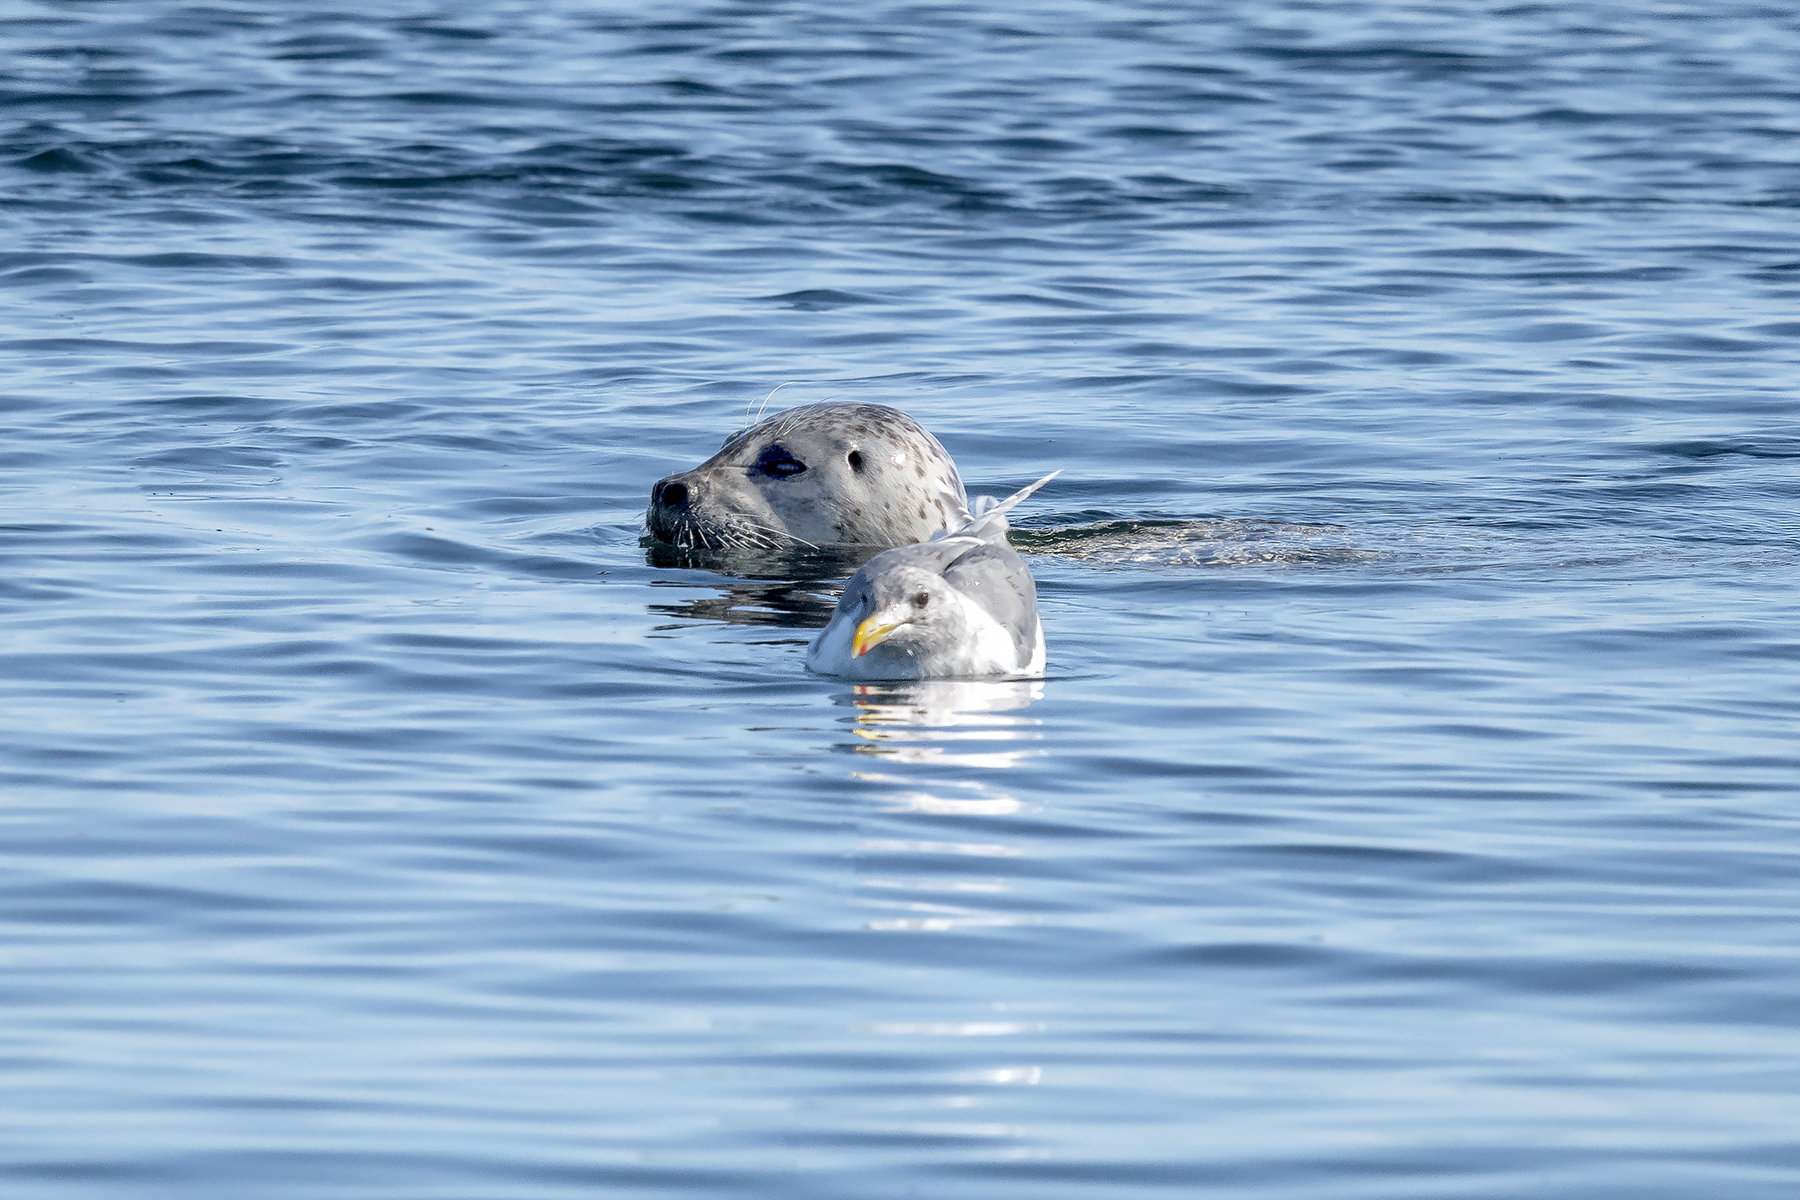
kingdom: Animalia
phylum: Chordata
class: Mammalia
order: Carnivora
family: Phocidae
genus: Phoca
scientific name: Phoca vitulina
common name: Harbor seal
